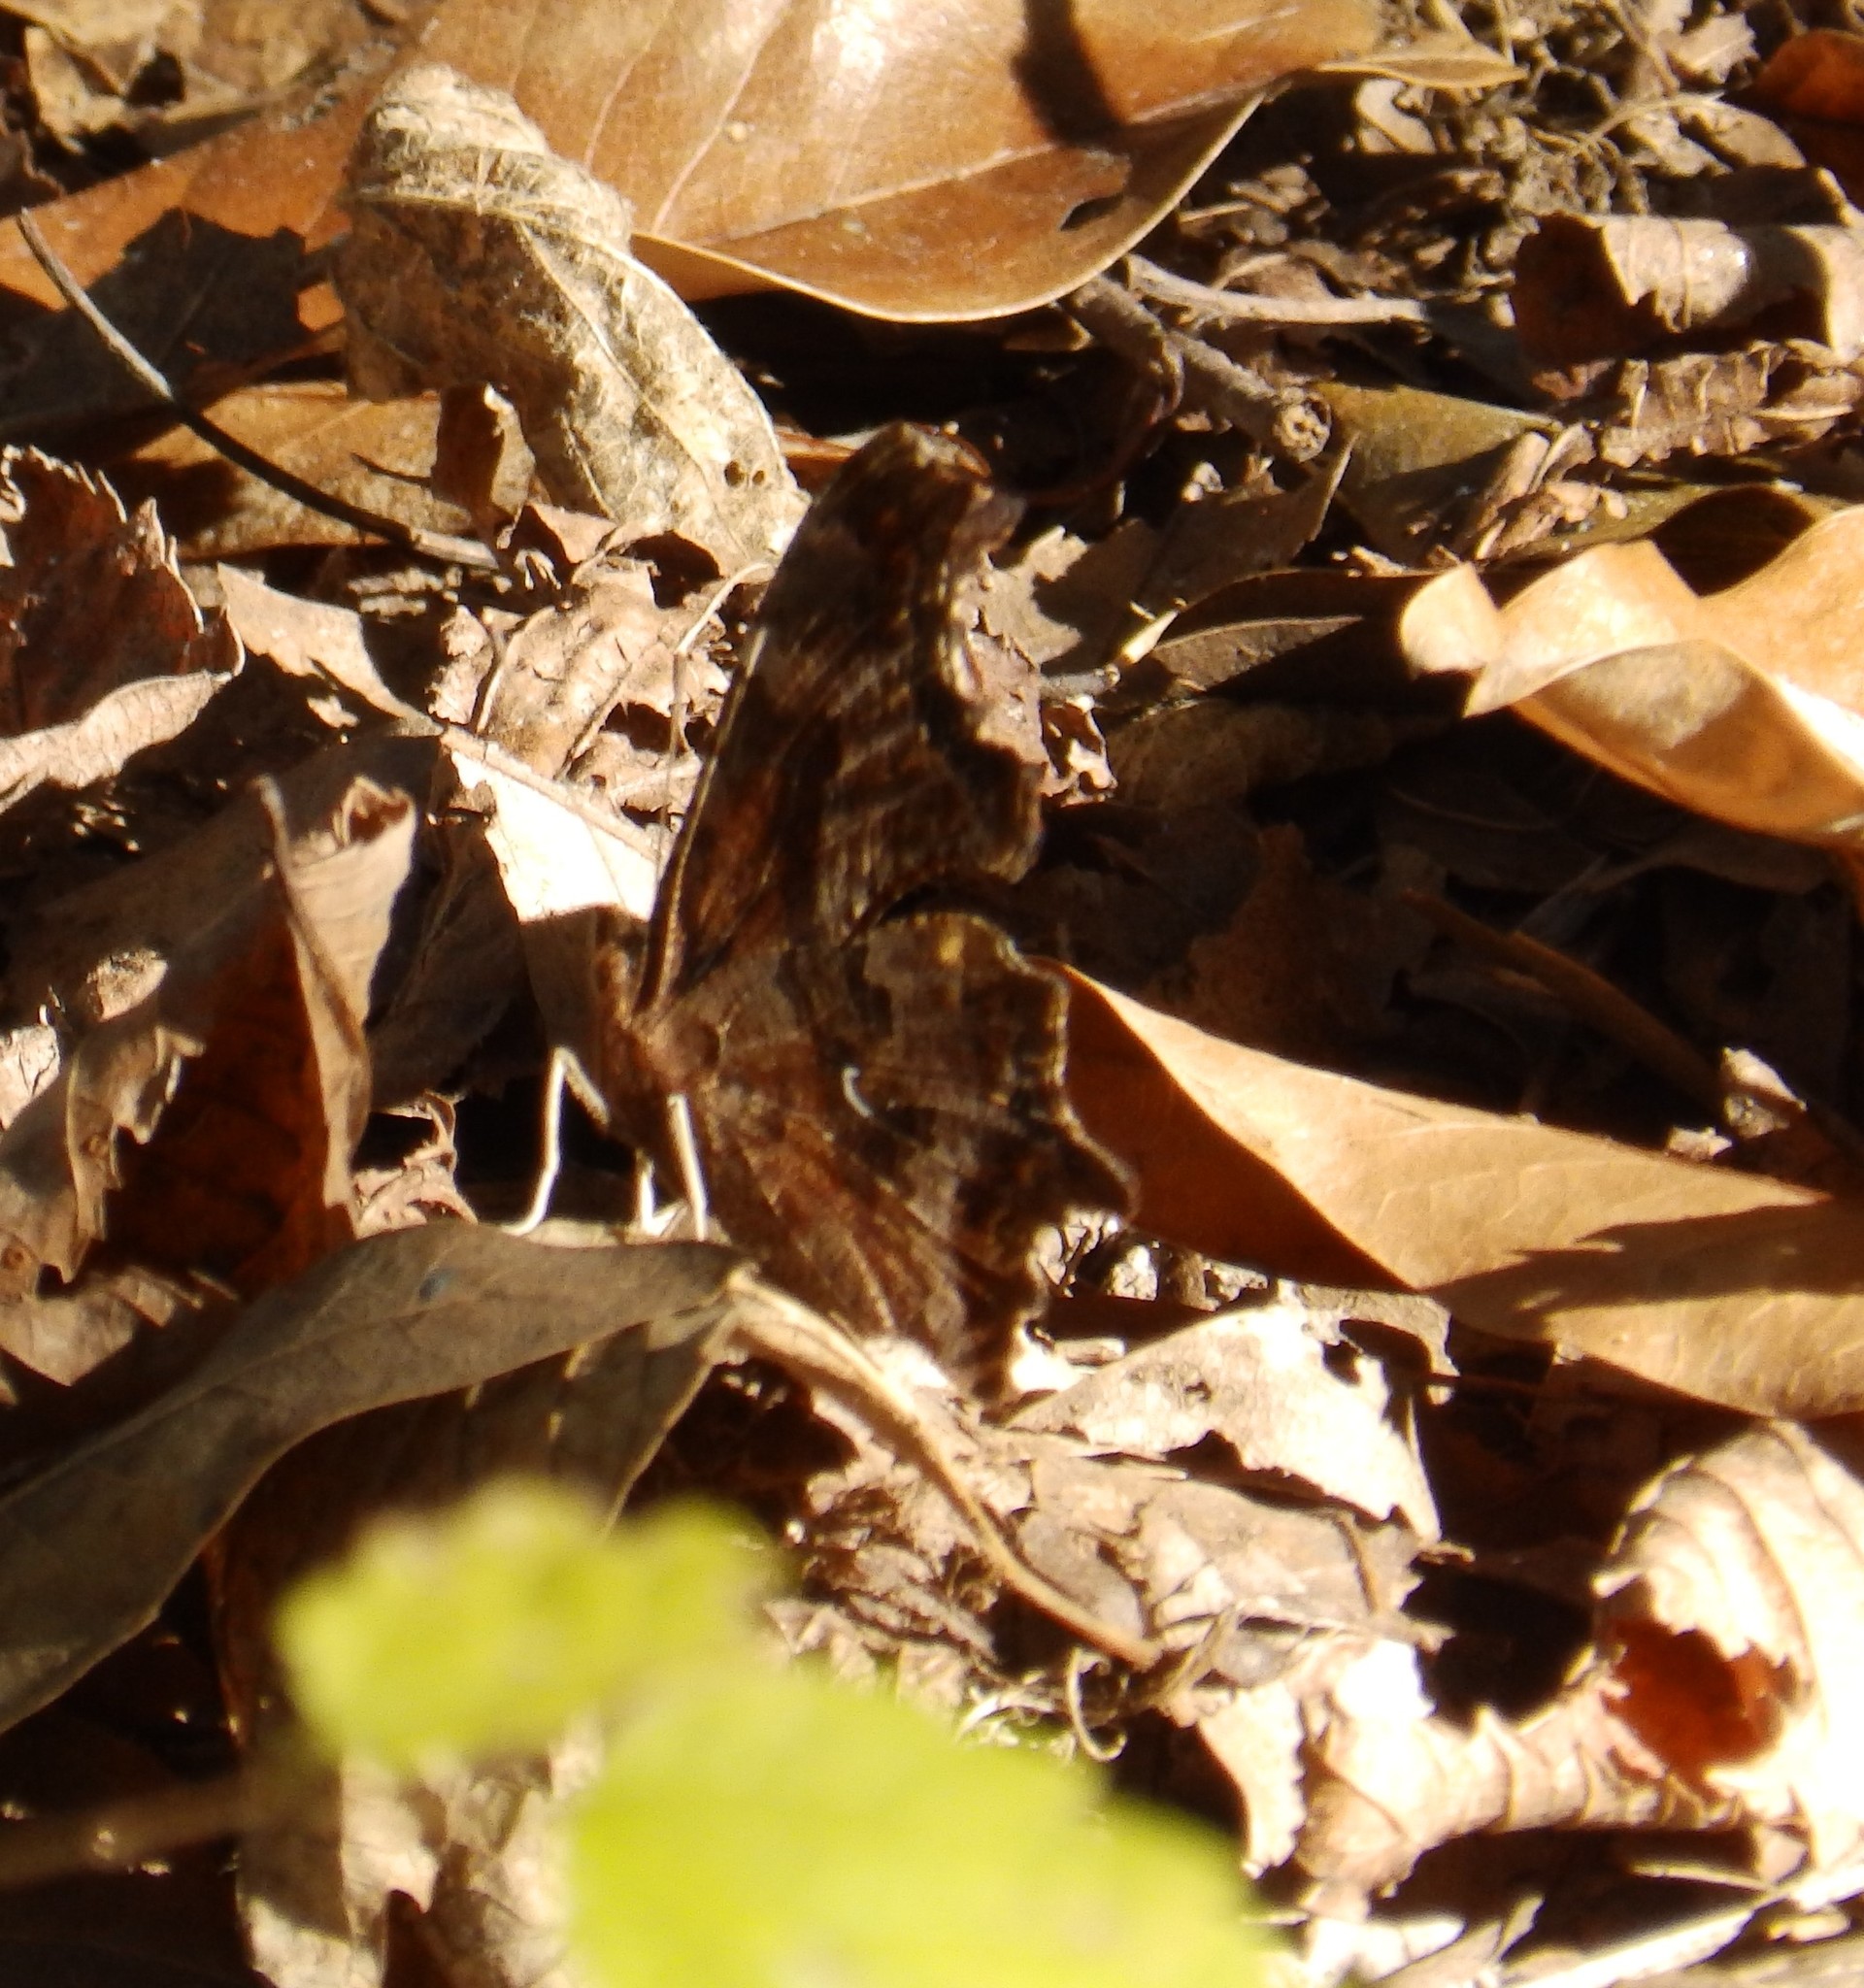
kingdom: Animalia
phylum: Arthropoda
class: Insecta
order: Lepidoptera
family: Nymphalidae
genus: Polygonia
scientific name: Polygonia comma
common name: Eastern comma
